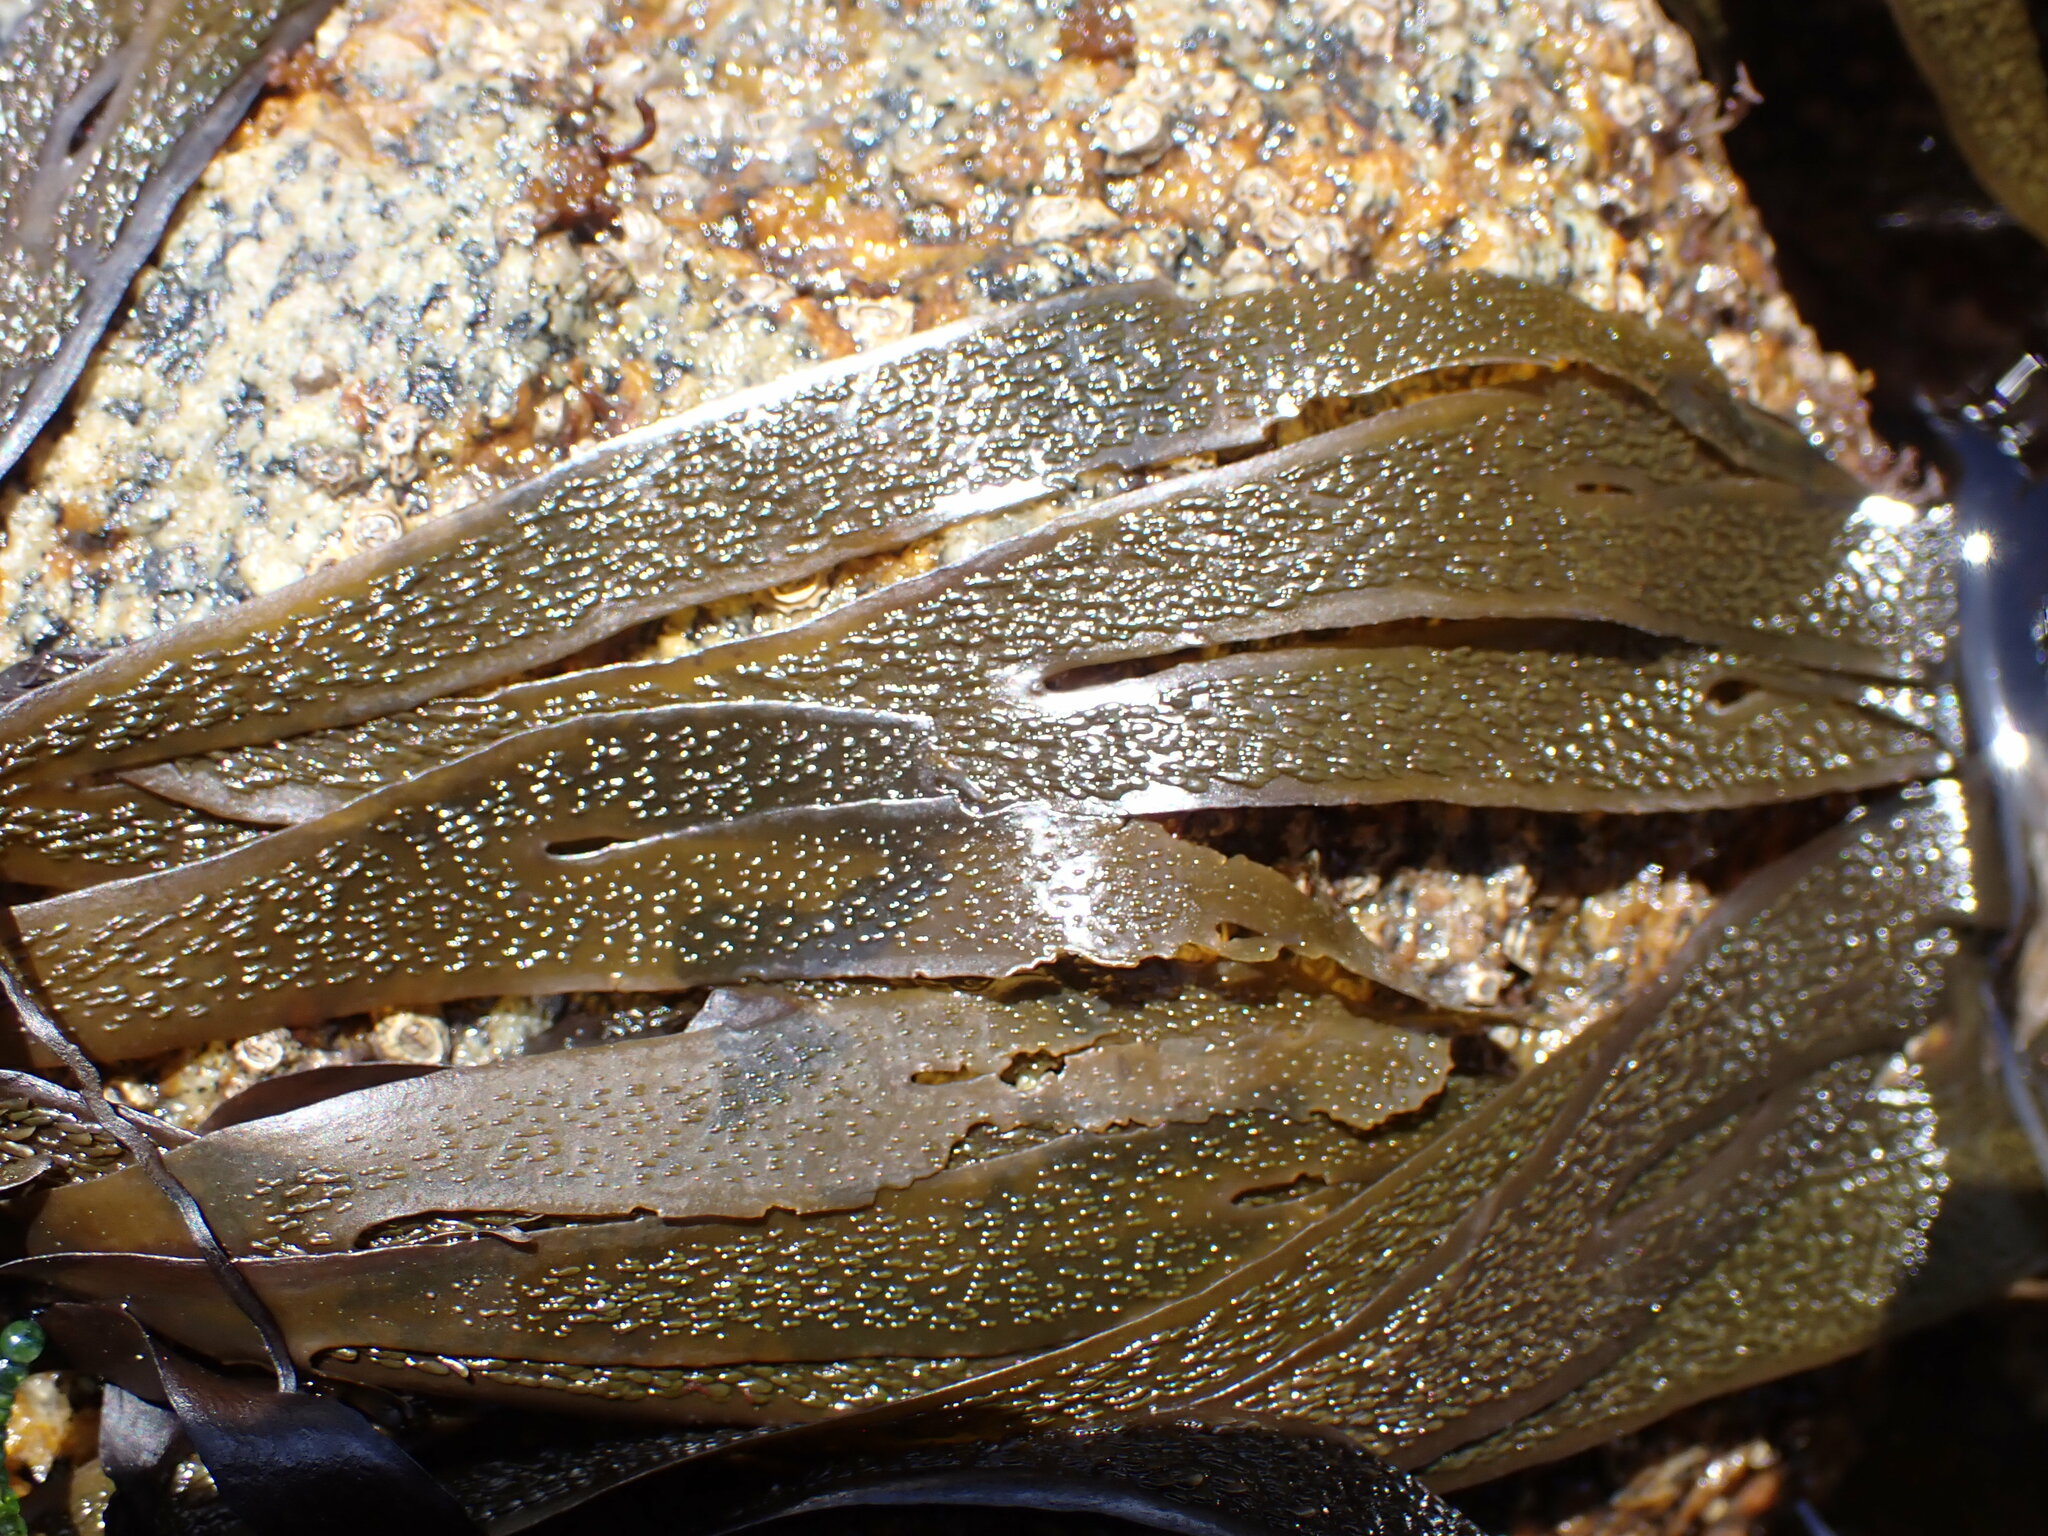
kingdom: Chromista
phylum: Ochrophyta
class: Phaeophyceae
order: Dictyotales
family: Dictyotaceae
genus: Dictyota
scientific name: Dictyota kunthii
